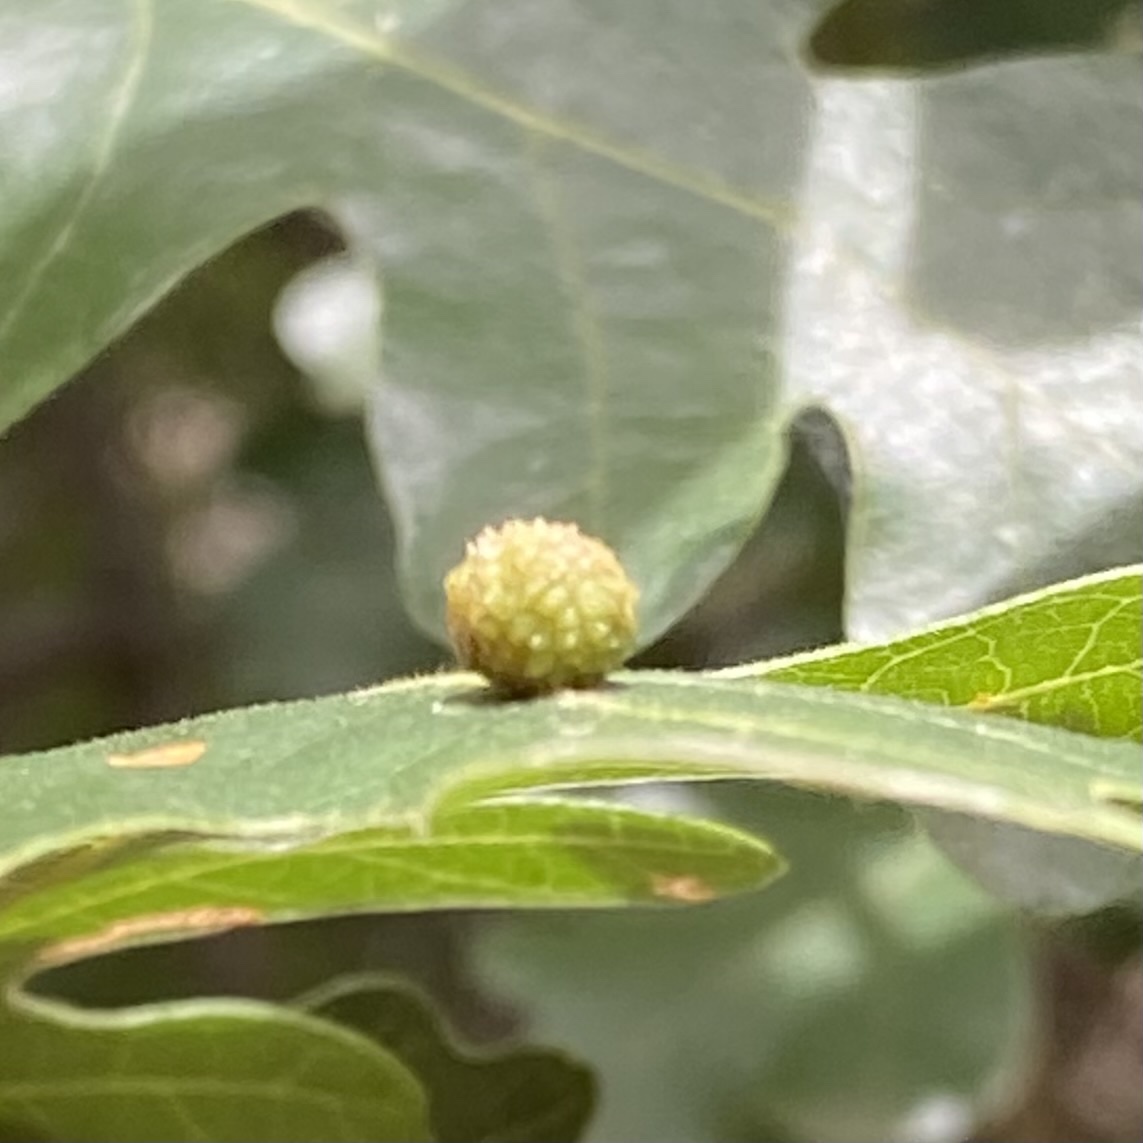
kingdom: Animalia
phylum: Arthropoda
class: Insecta
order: Hymenoptera
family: Cynipidae
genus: Acraspis
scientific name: Acraspis quercushirta
